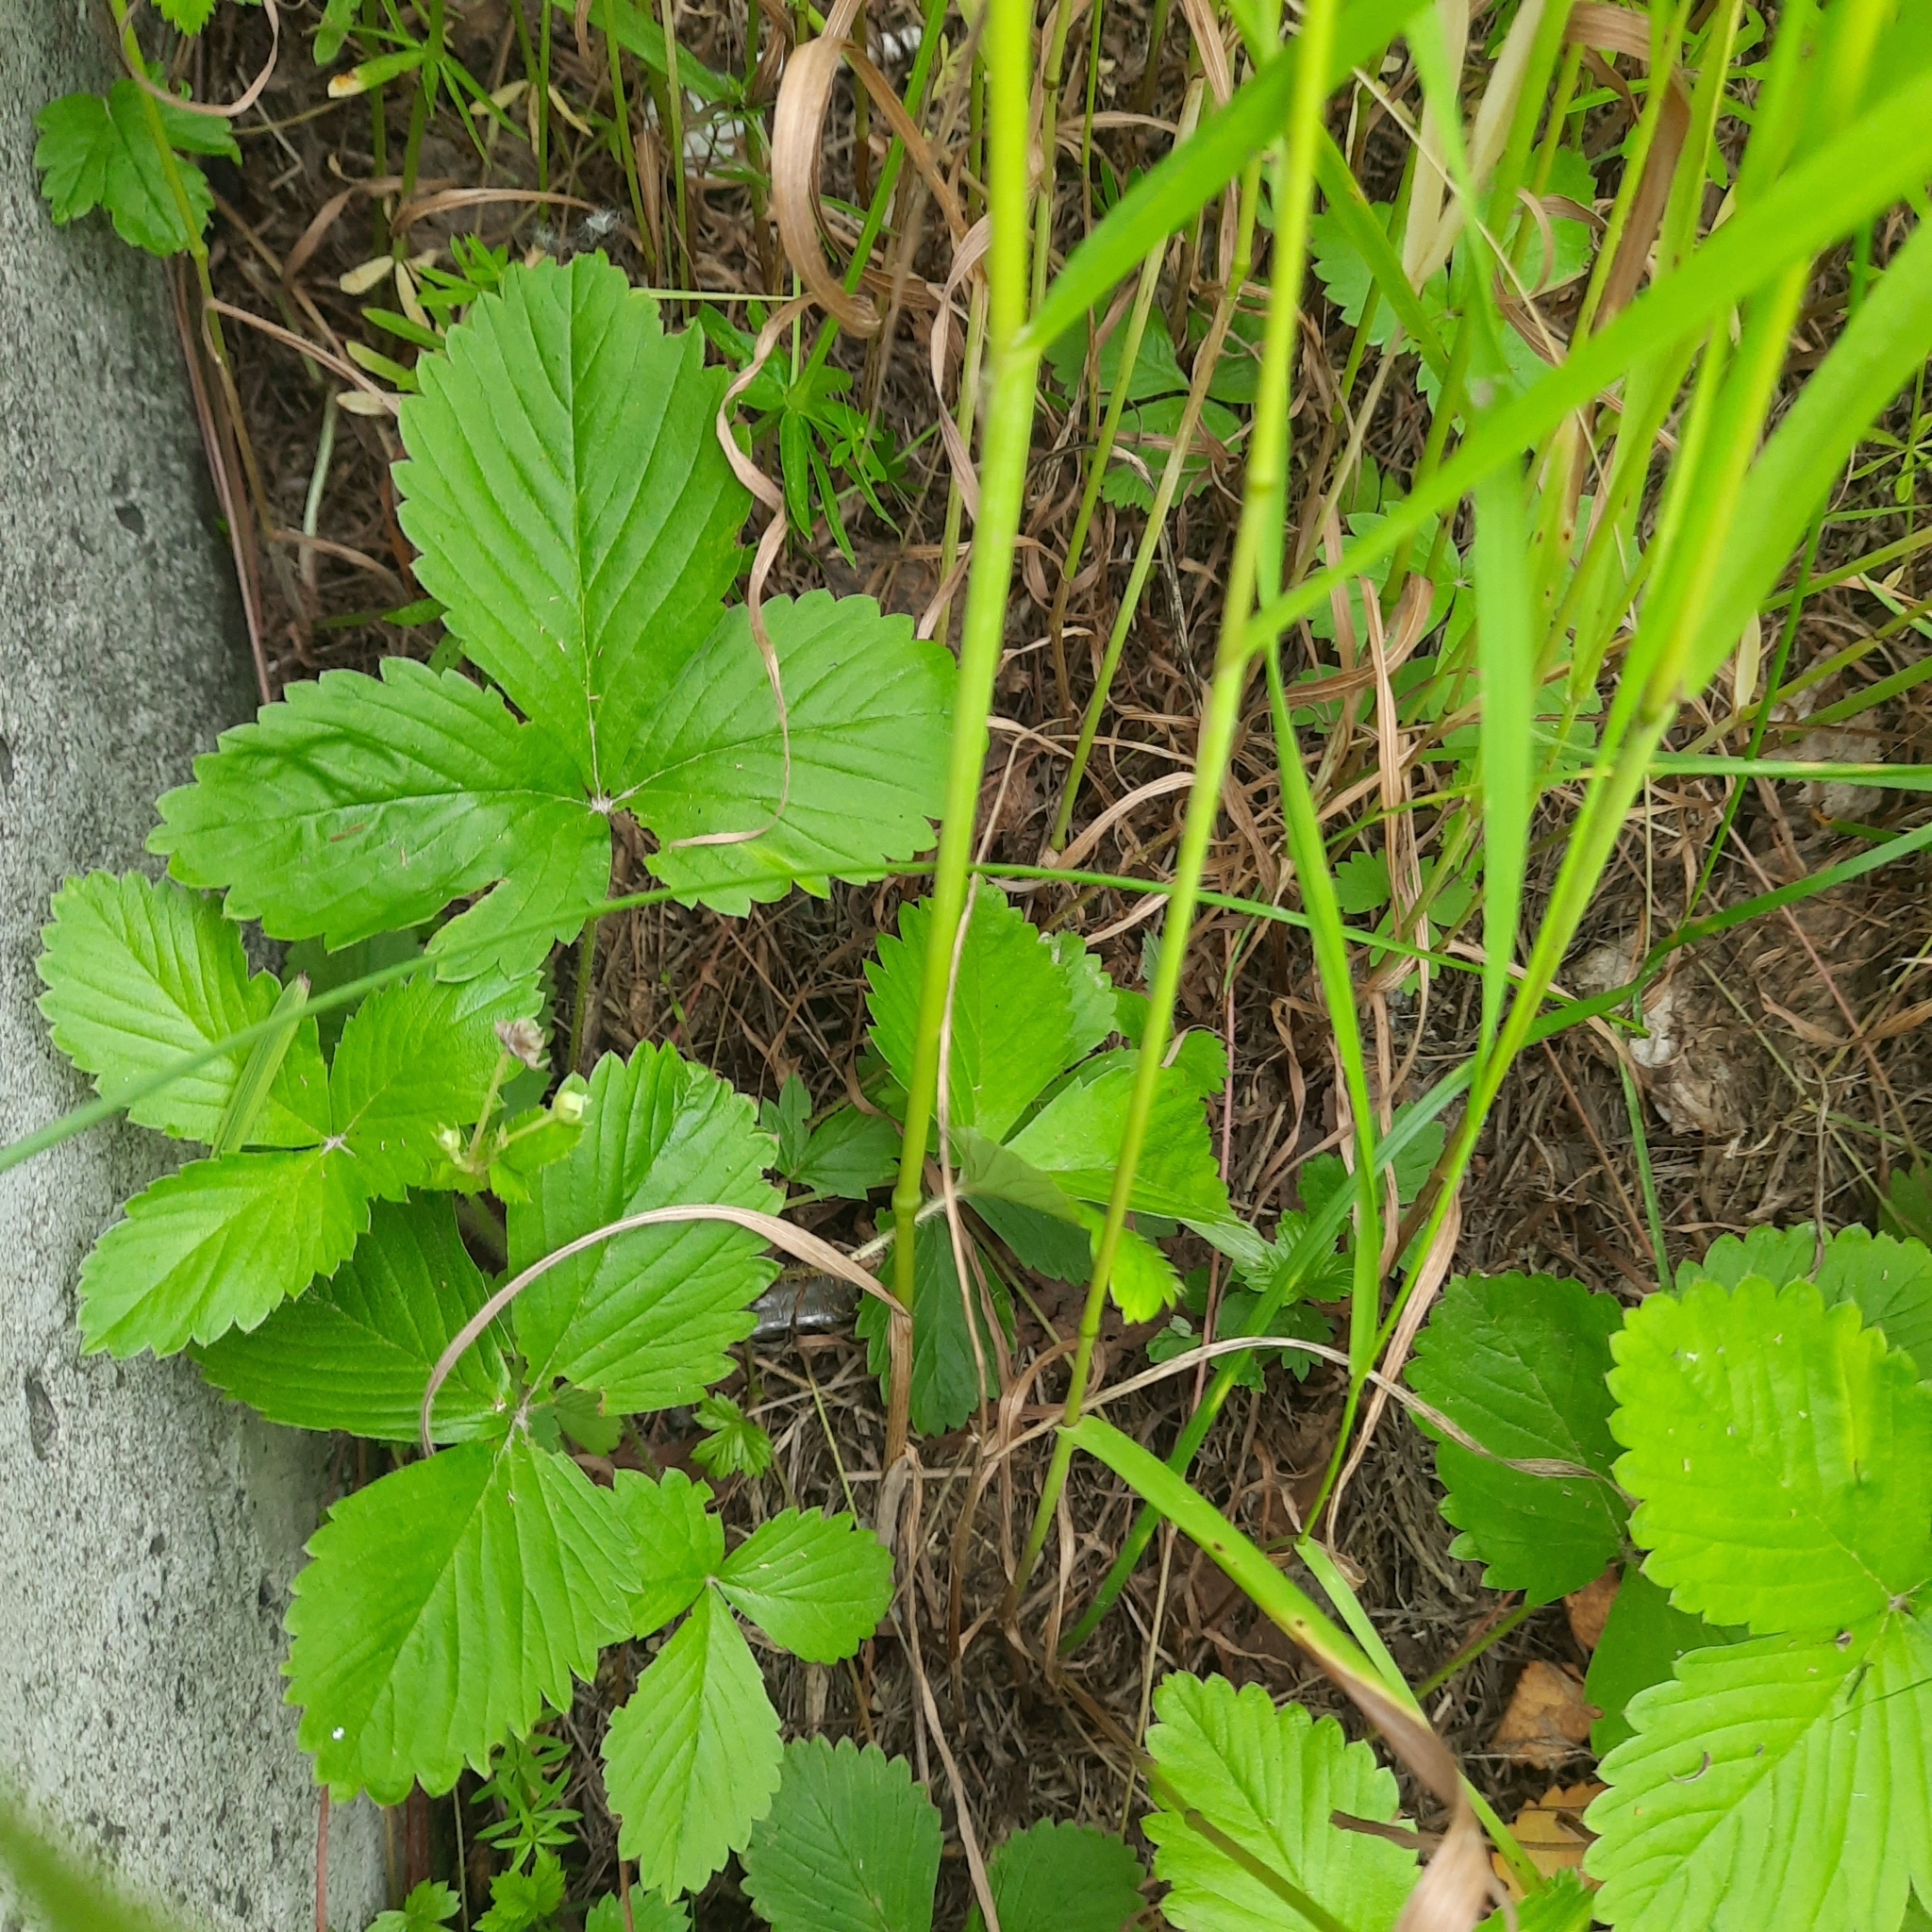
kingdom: Plantae
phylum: Tracheophyta
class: Magnoliopsida
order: Rosales
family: Rosaceae
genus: Fragaria
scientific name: Fragaria vesca
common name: Wild strawberry
